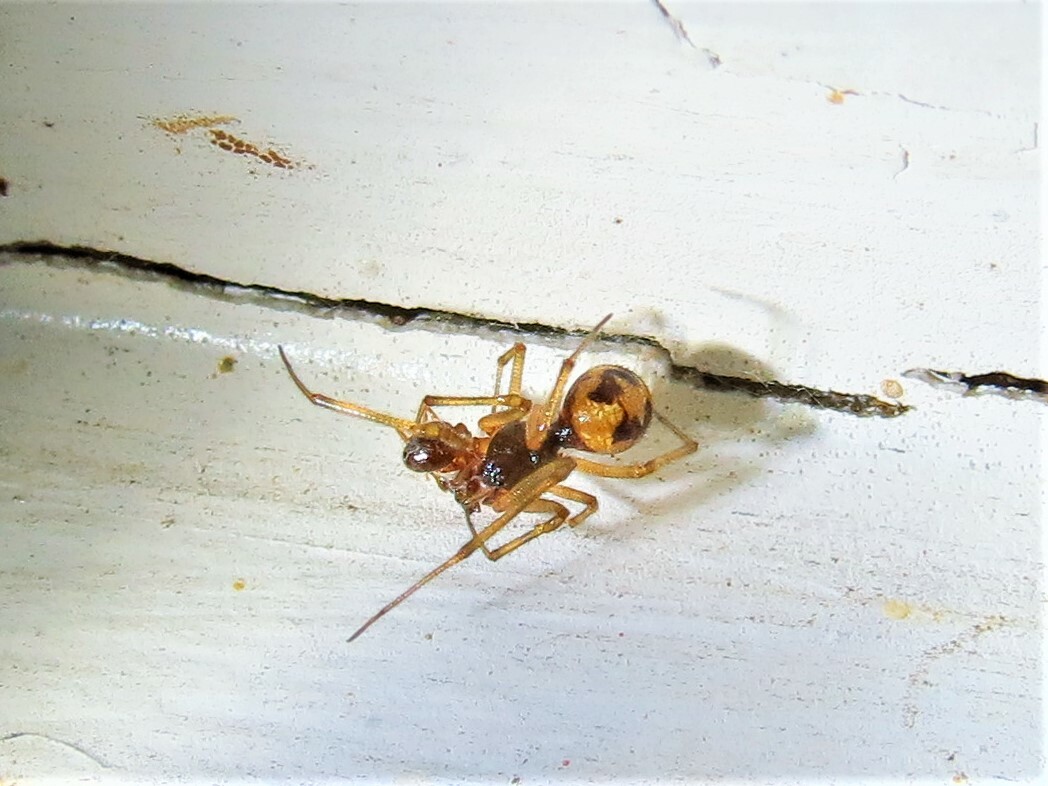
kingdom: Animalia
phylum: Arthropoda
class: Arachnida
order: Araneae
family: Theridiidae
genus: Steatoda
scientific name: Steatoda triangulosa
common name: Triangulate bud spider
